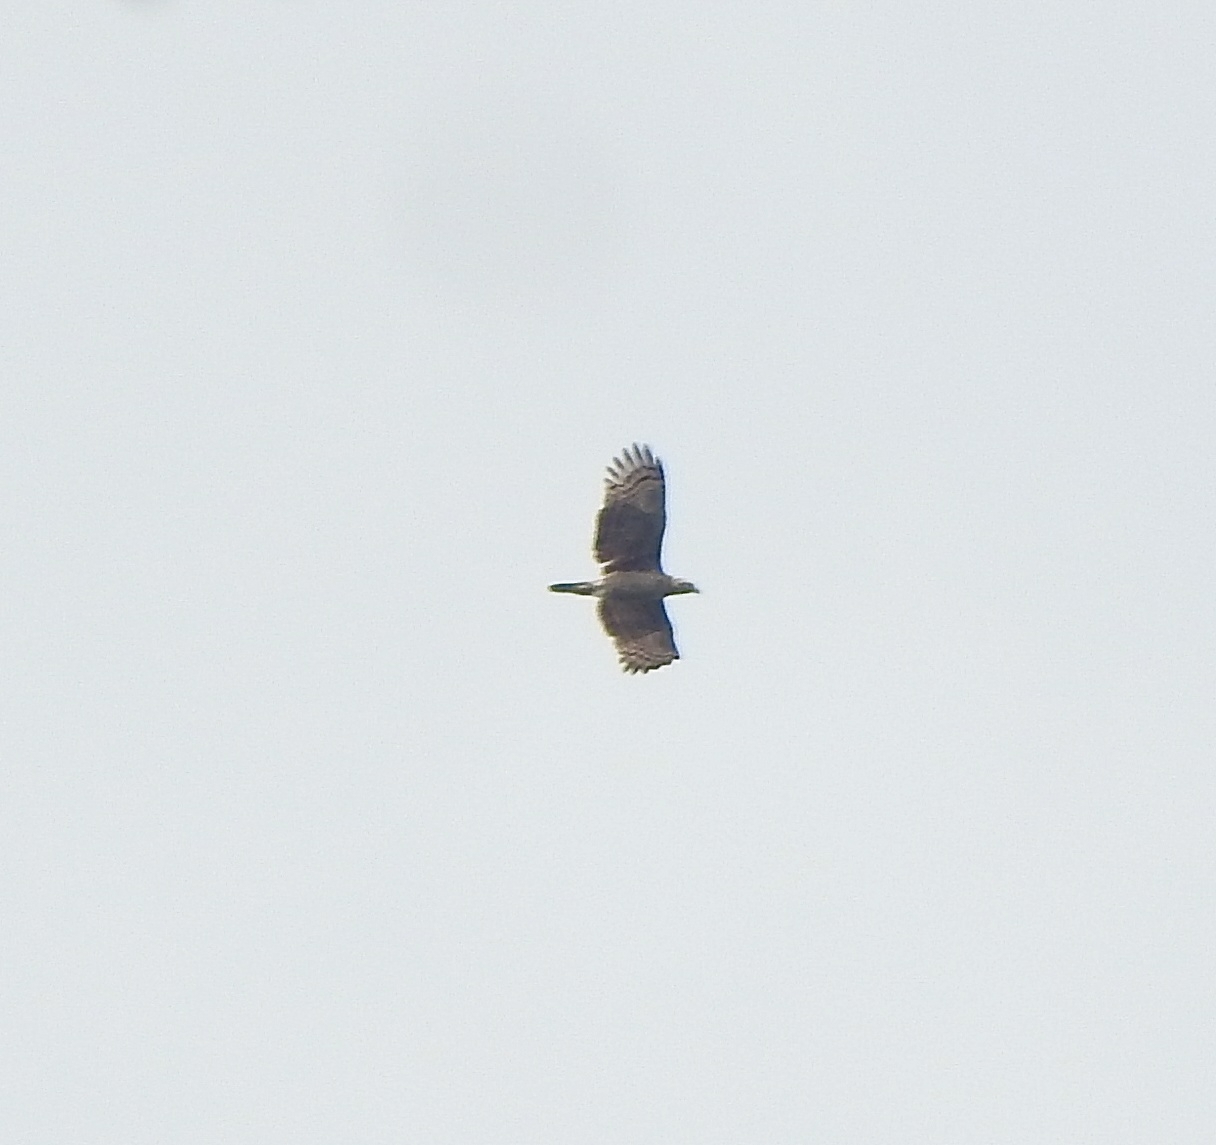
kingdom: Animalia
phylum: Chordata
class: Aves
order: Accipitriformes
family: Accipitridae
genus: Spilornis
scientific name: Spilornis cheela
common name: Crested serpent eagle
